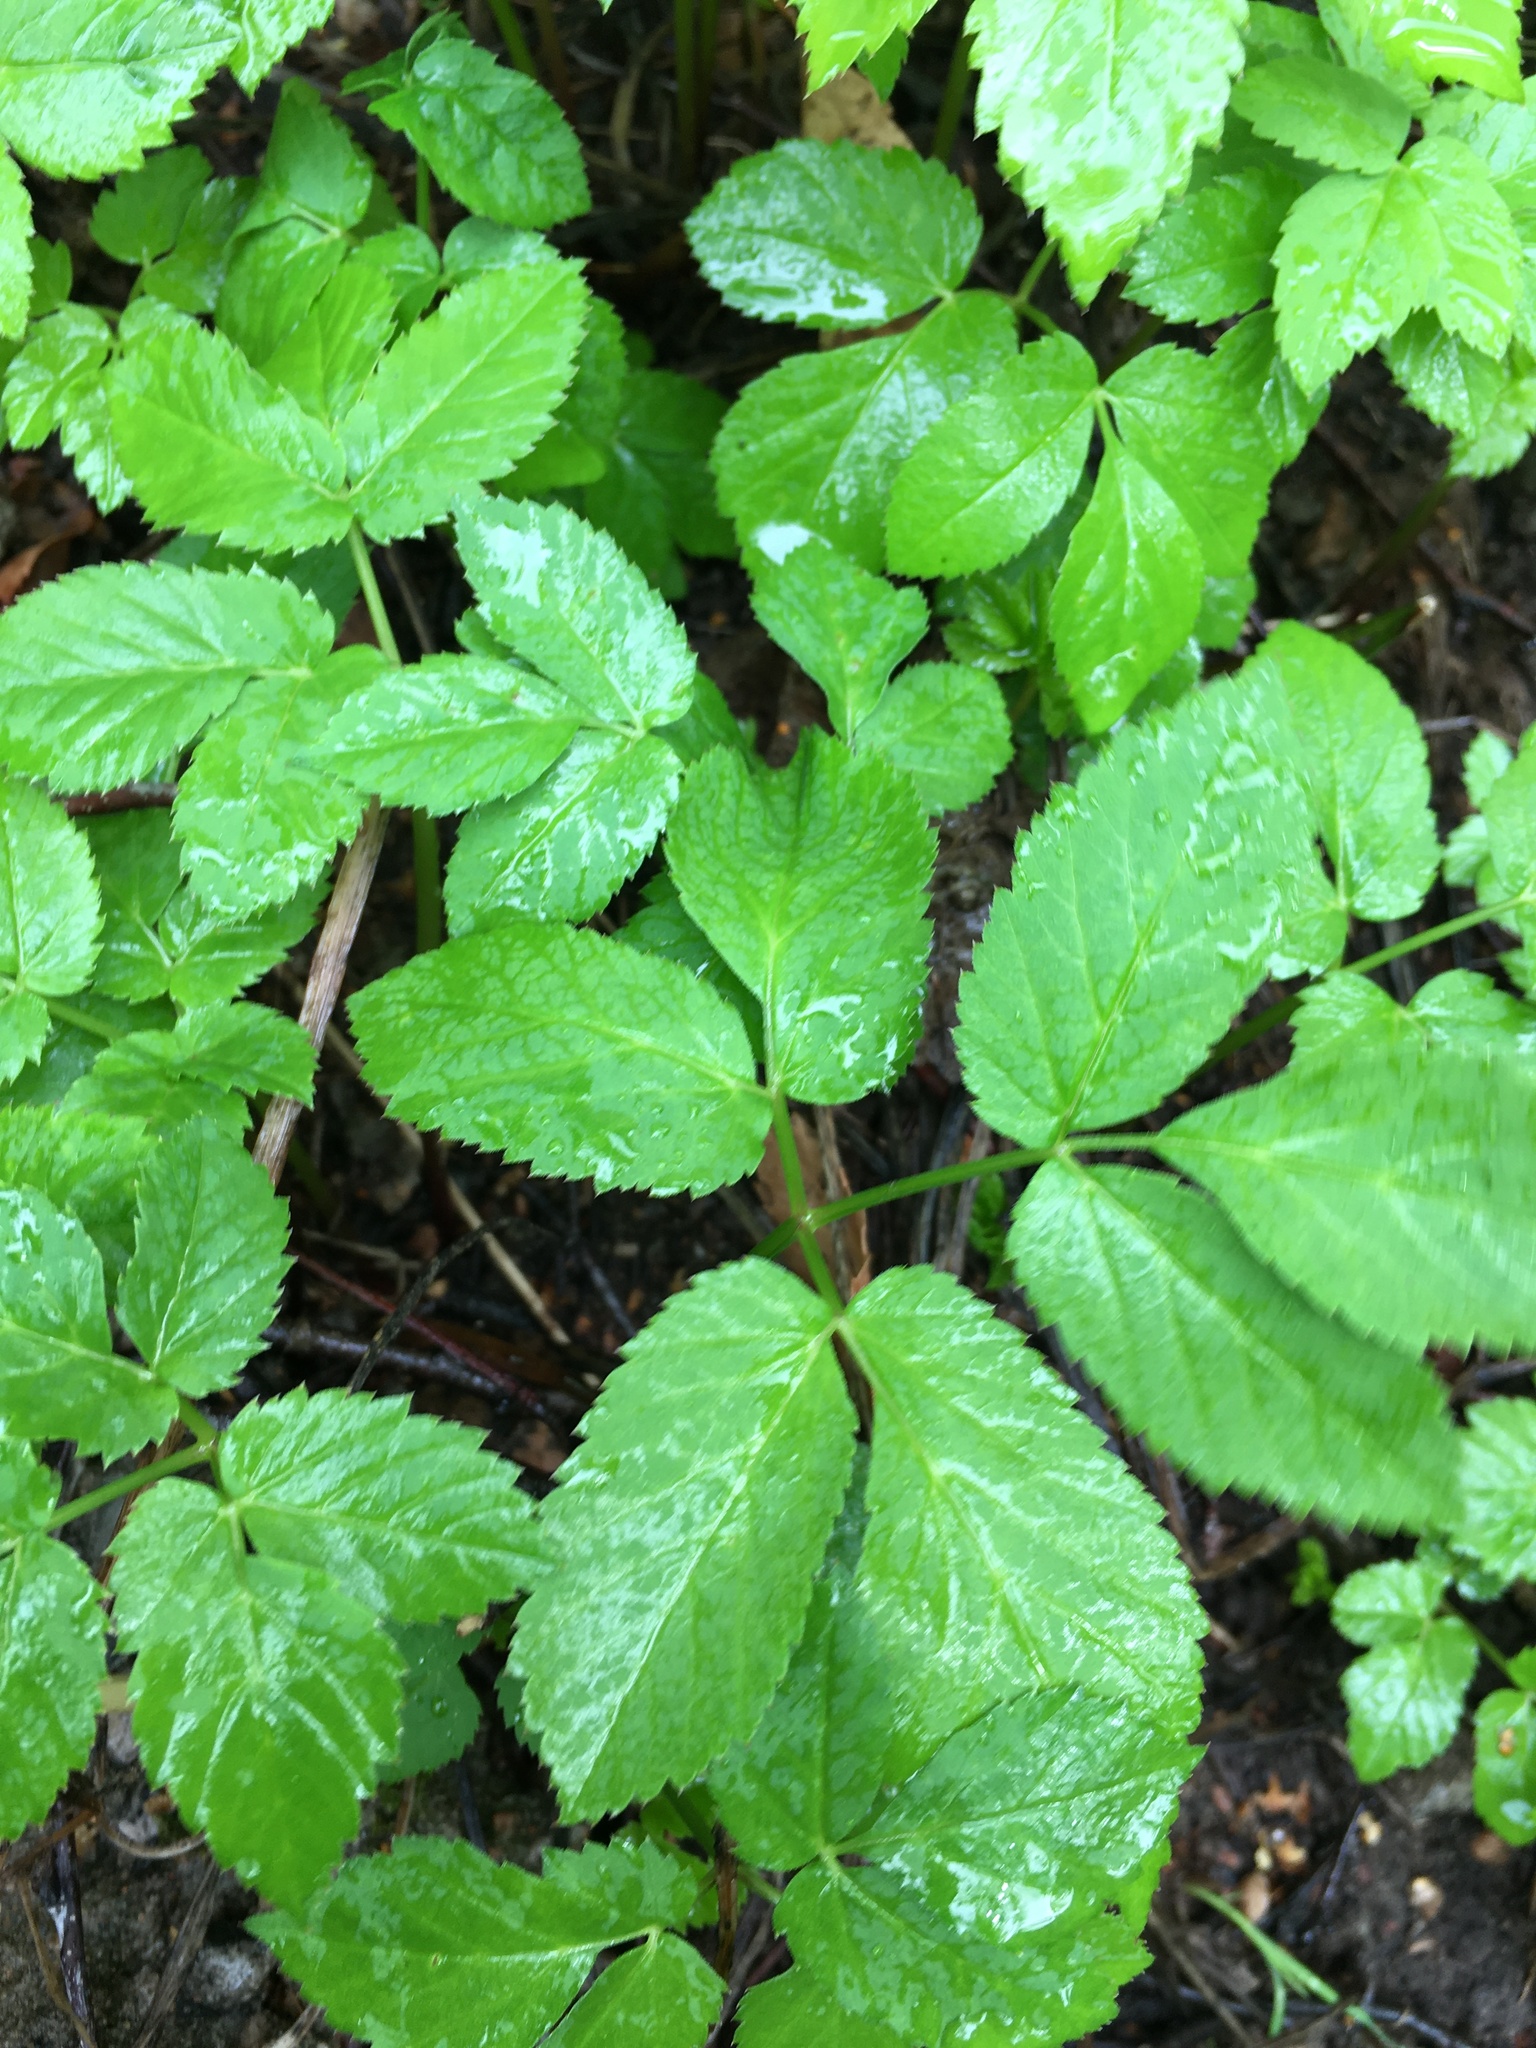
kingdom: Plantae
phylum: Tracheophyta
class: Magnoliopsida
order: Apiales
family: Apiaceae
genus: Aegopodium
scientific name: Aegopodium podagraria
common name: Ground-elder
